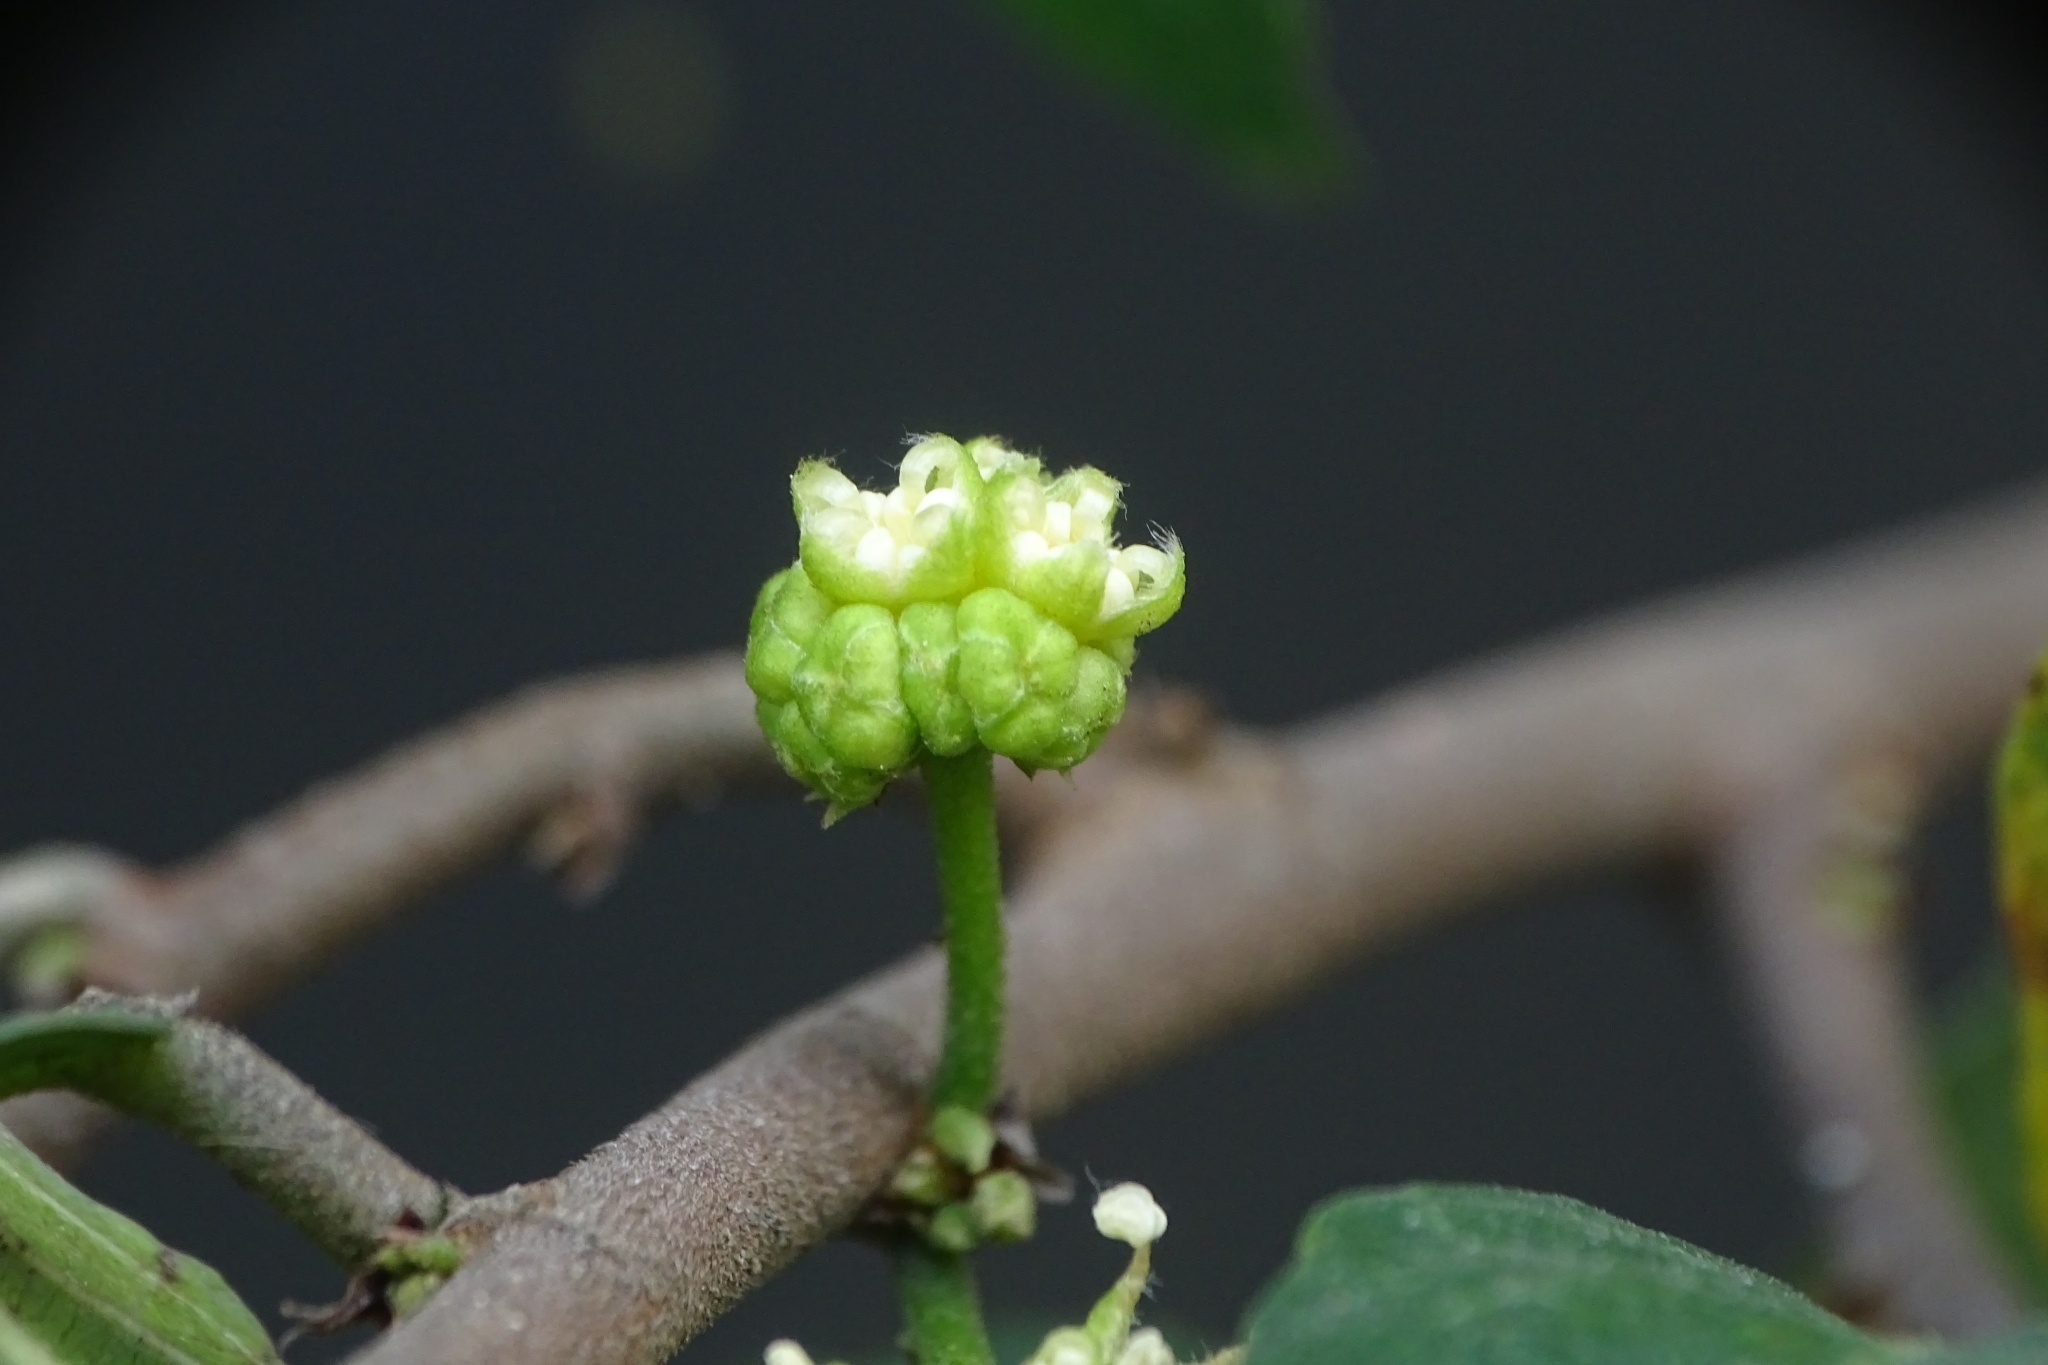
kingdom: Plantae
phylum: Tracheophyta
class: Magnoliopsida
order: Rosales
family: Moraceae
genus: Streblus
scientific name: Streblus asper
